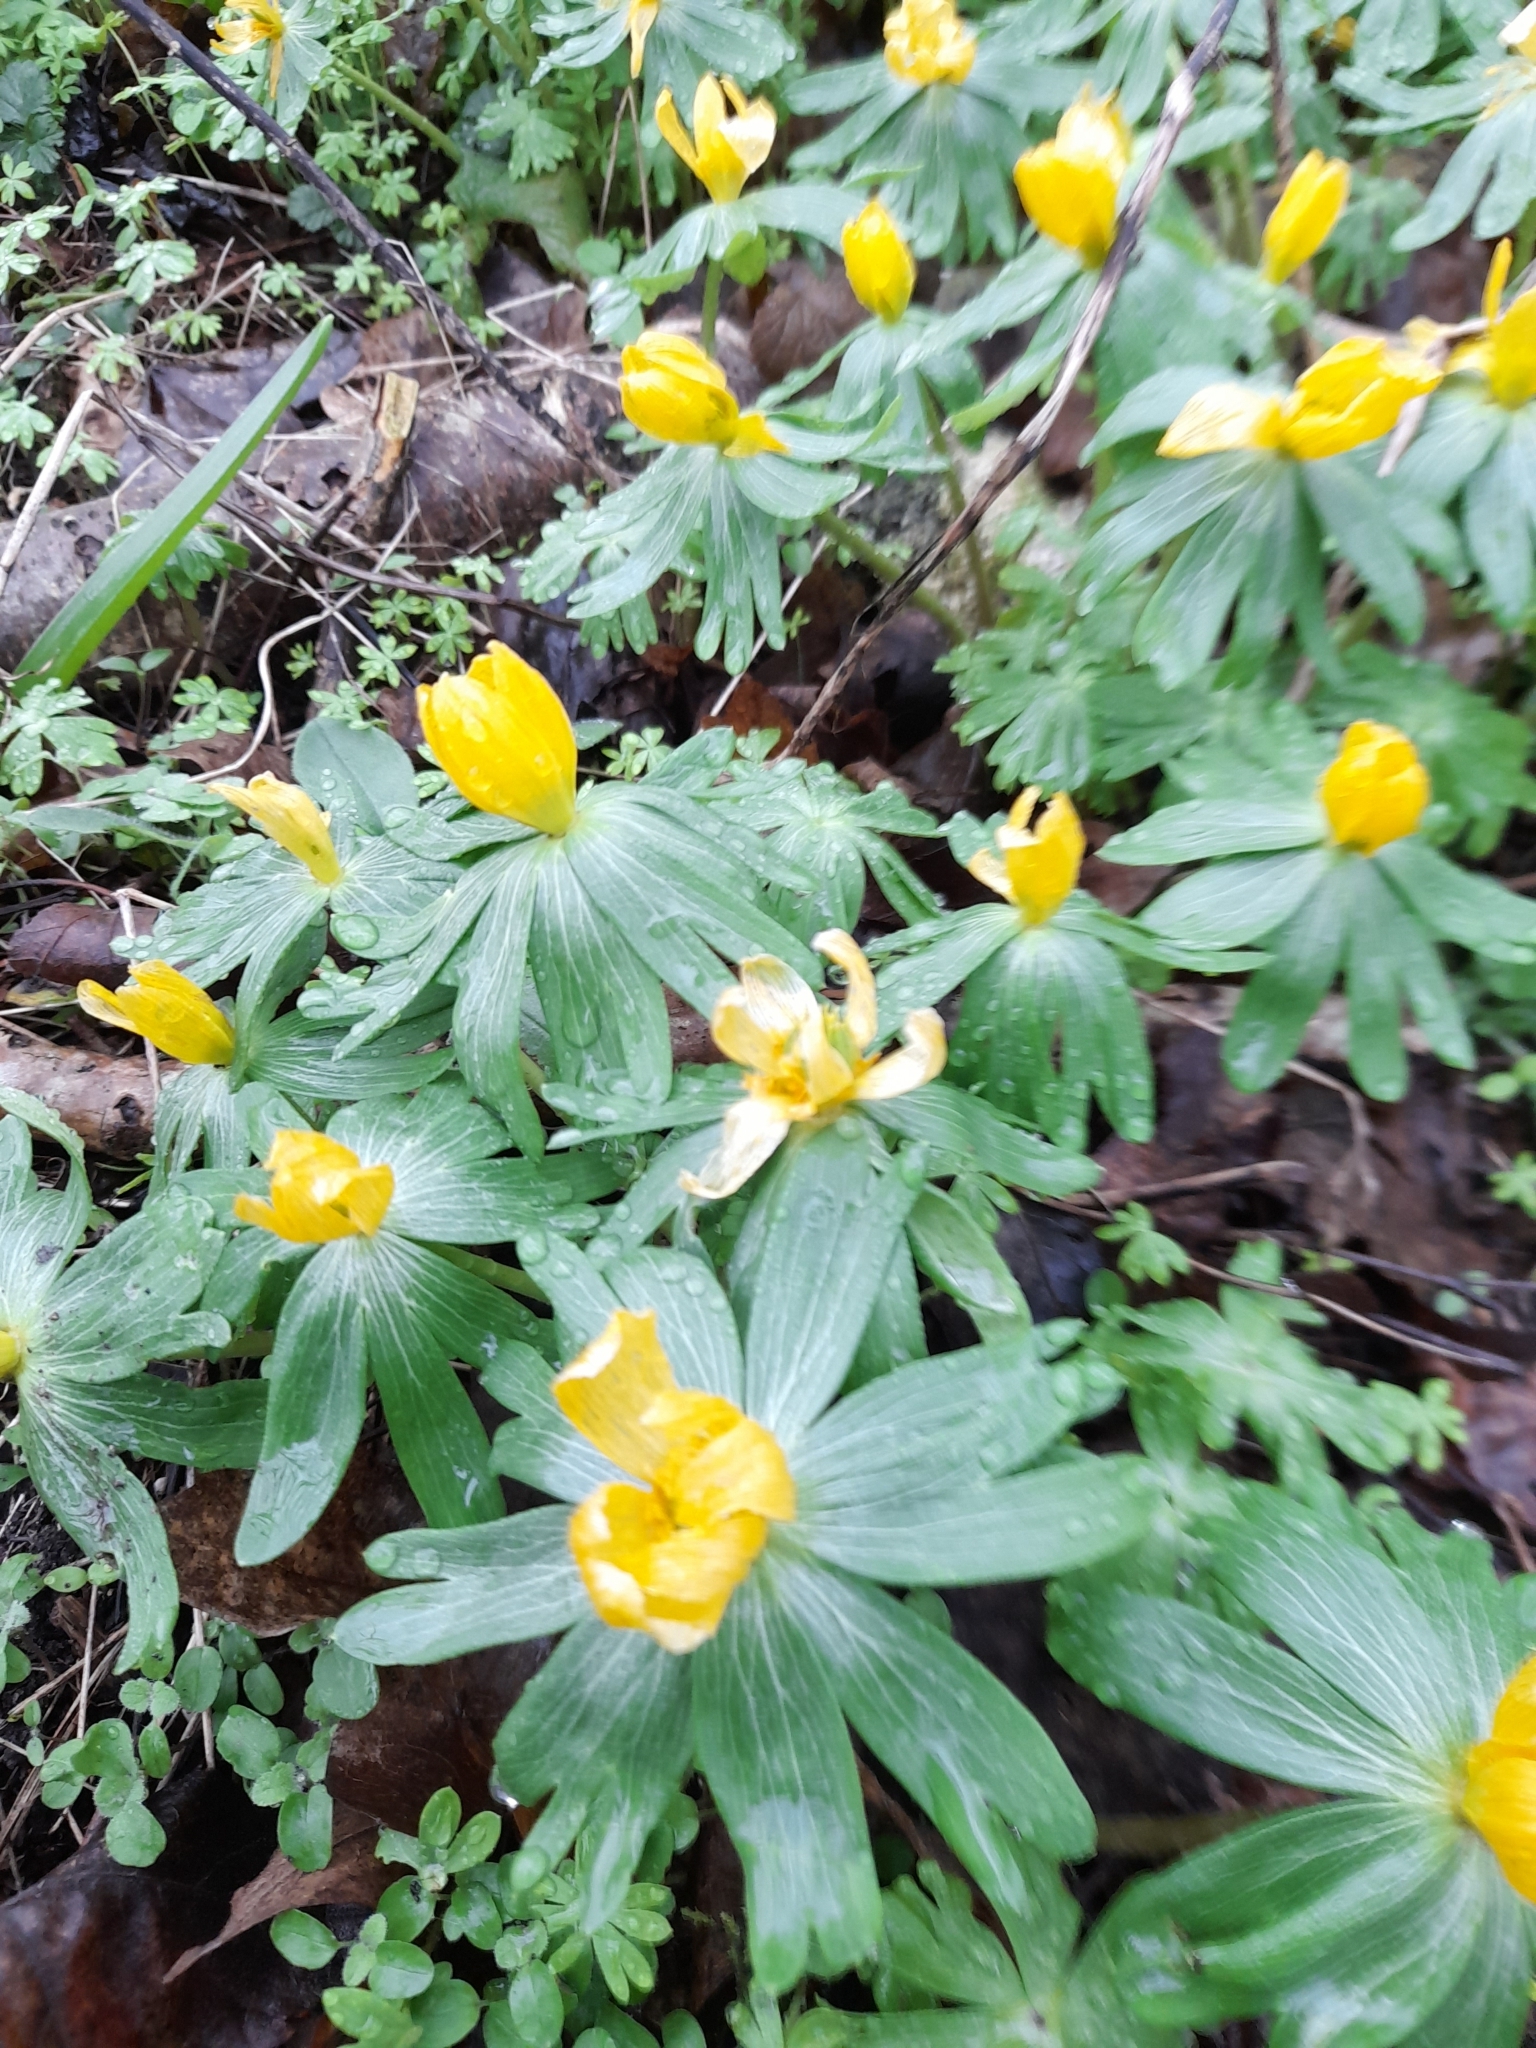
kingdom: Plantae
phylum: Tracheophyta
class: Magnoliopsida
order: Ranunculales
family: Ranunculaceae
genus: Eranthis
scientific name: Eranthis hyemalis
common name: Winter aconite
